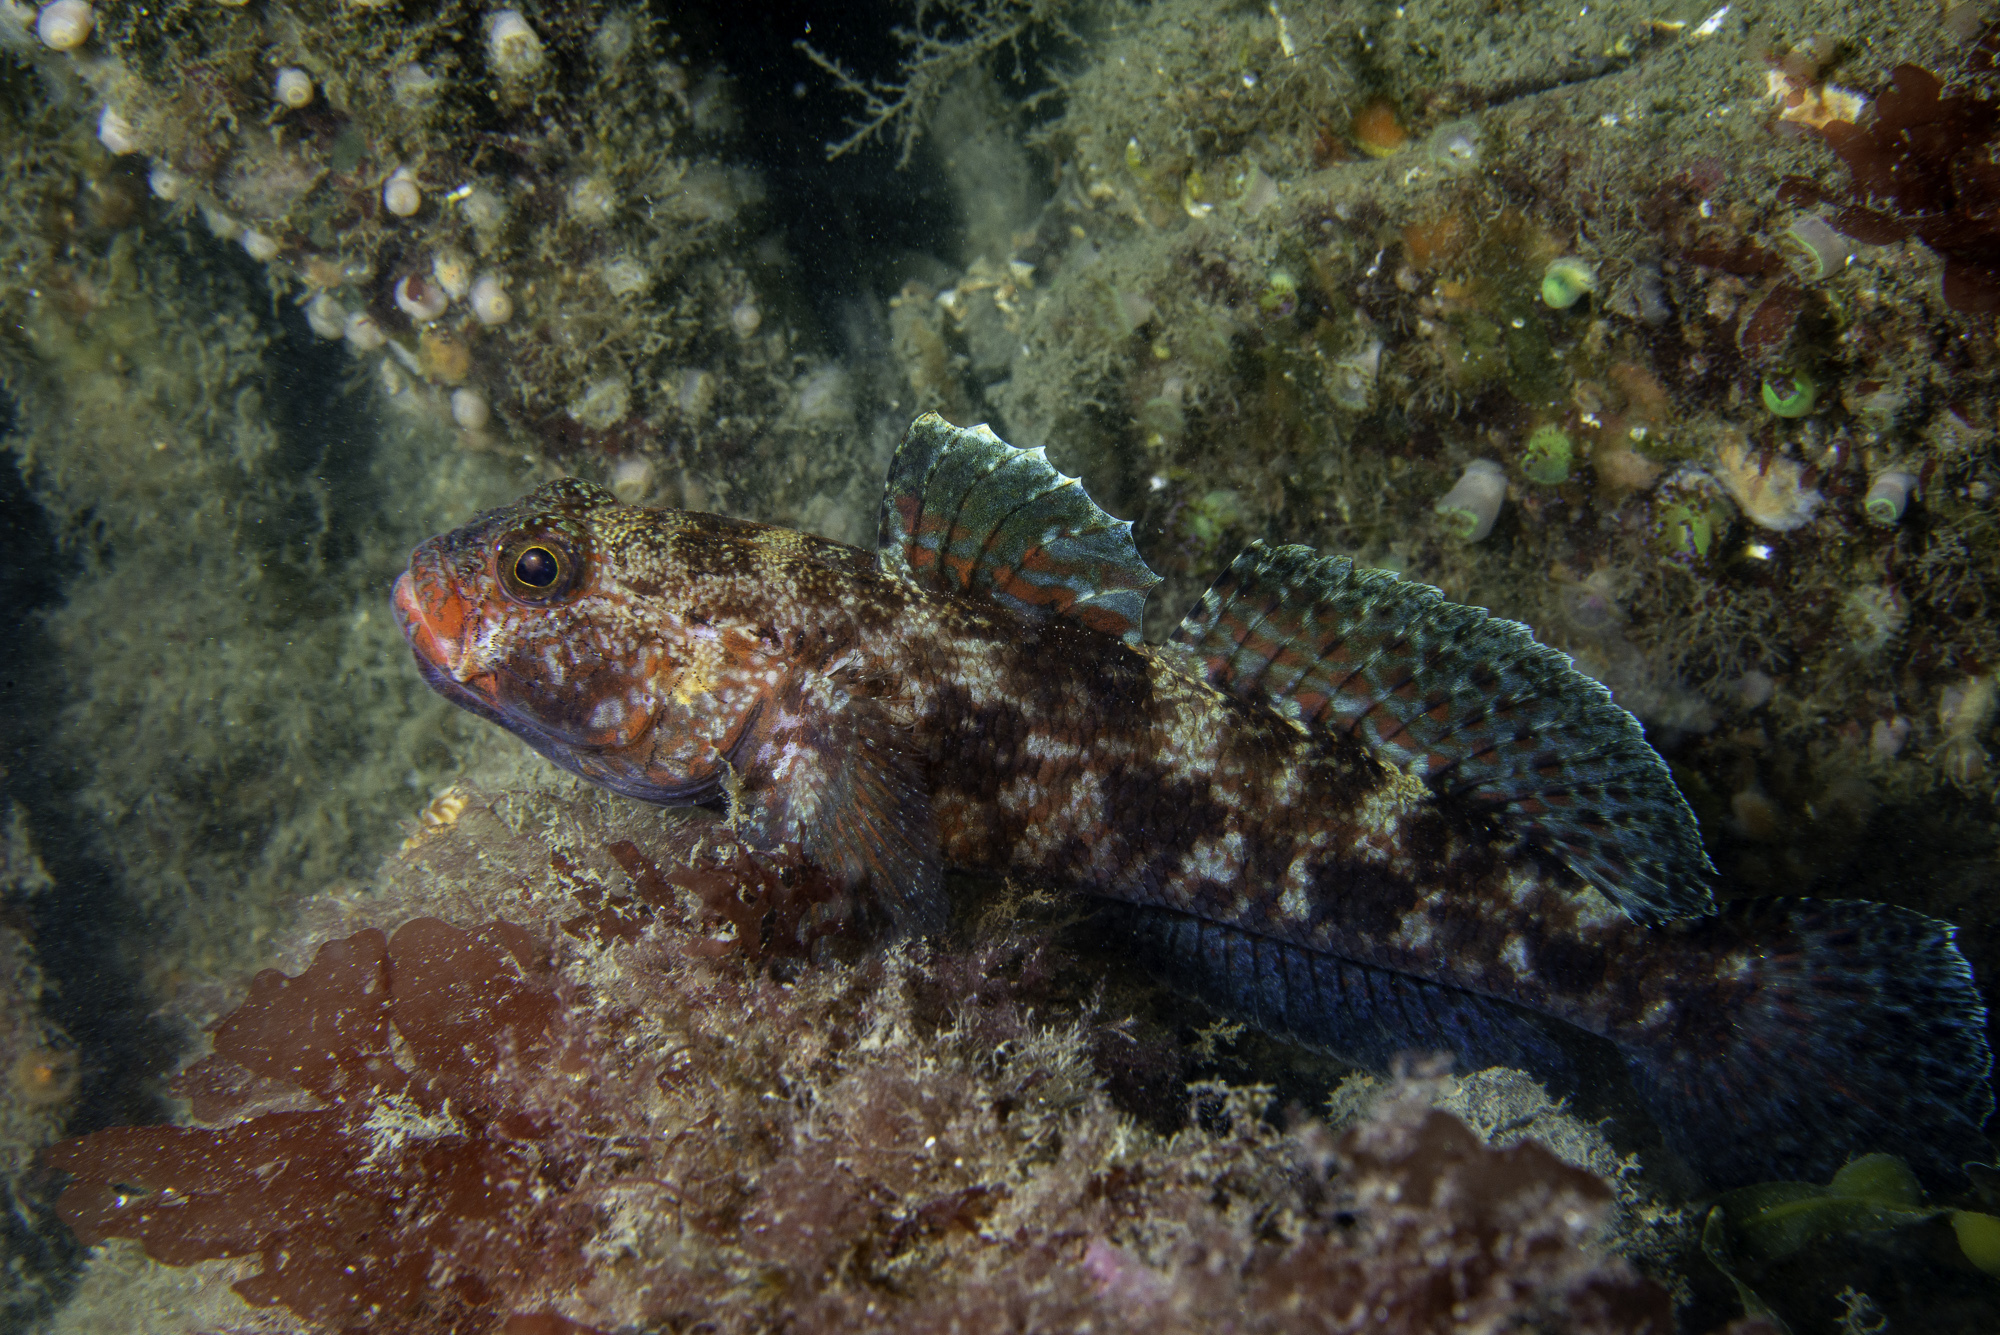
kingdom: Animalia
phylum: Chordata
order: Perciformes
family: Gobiidae
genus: Gobius
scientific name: Gobius cruentatus
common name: Red-mouthed goby
